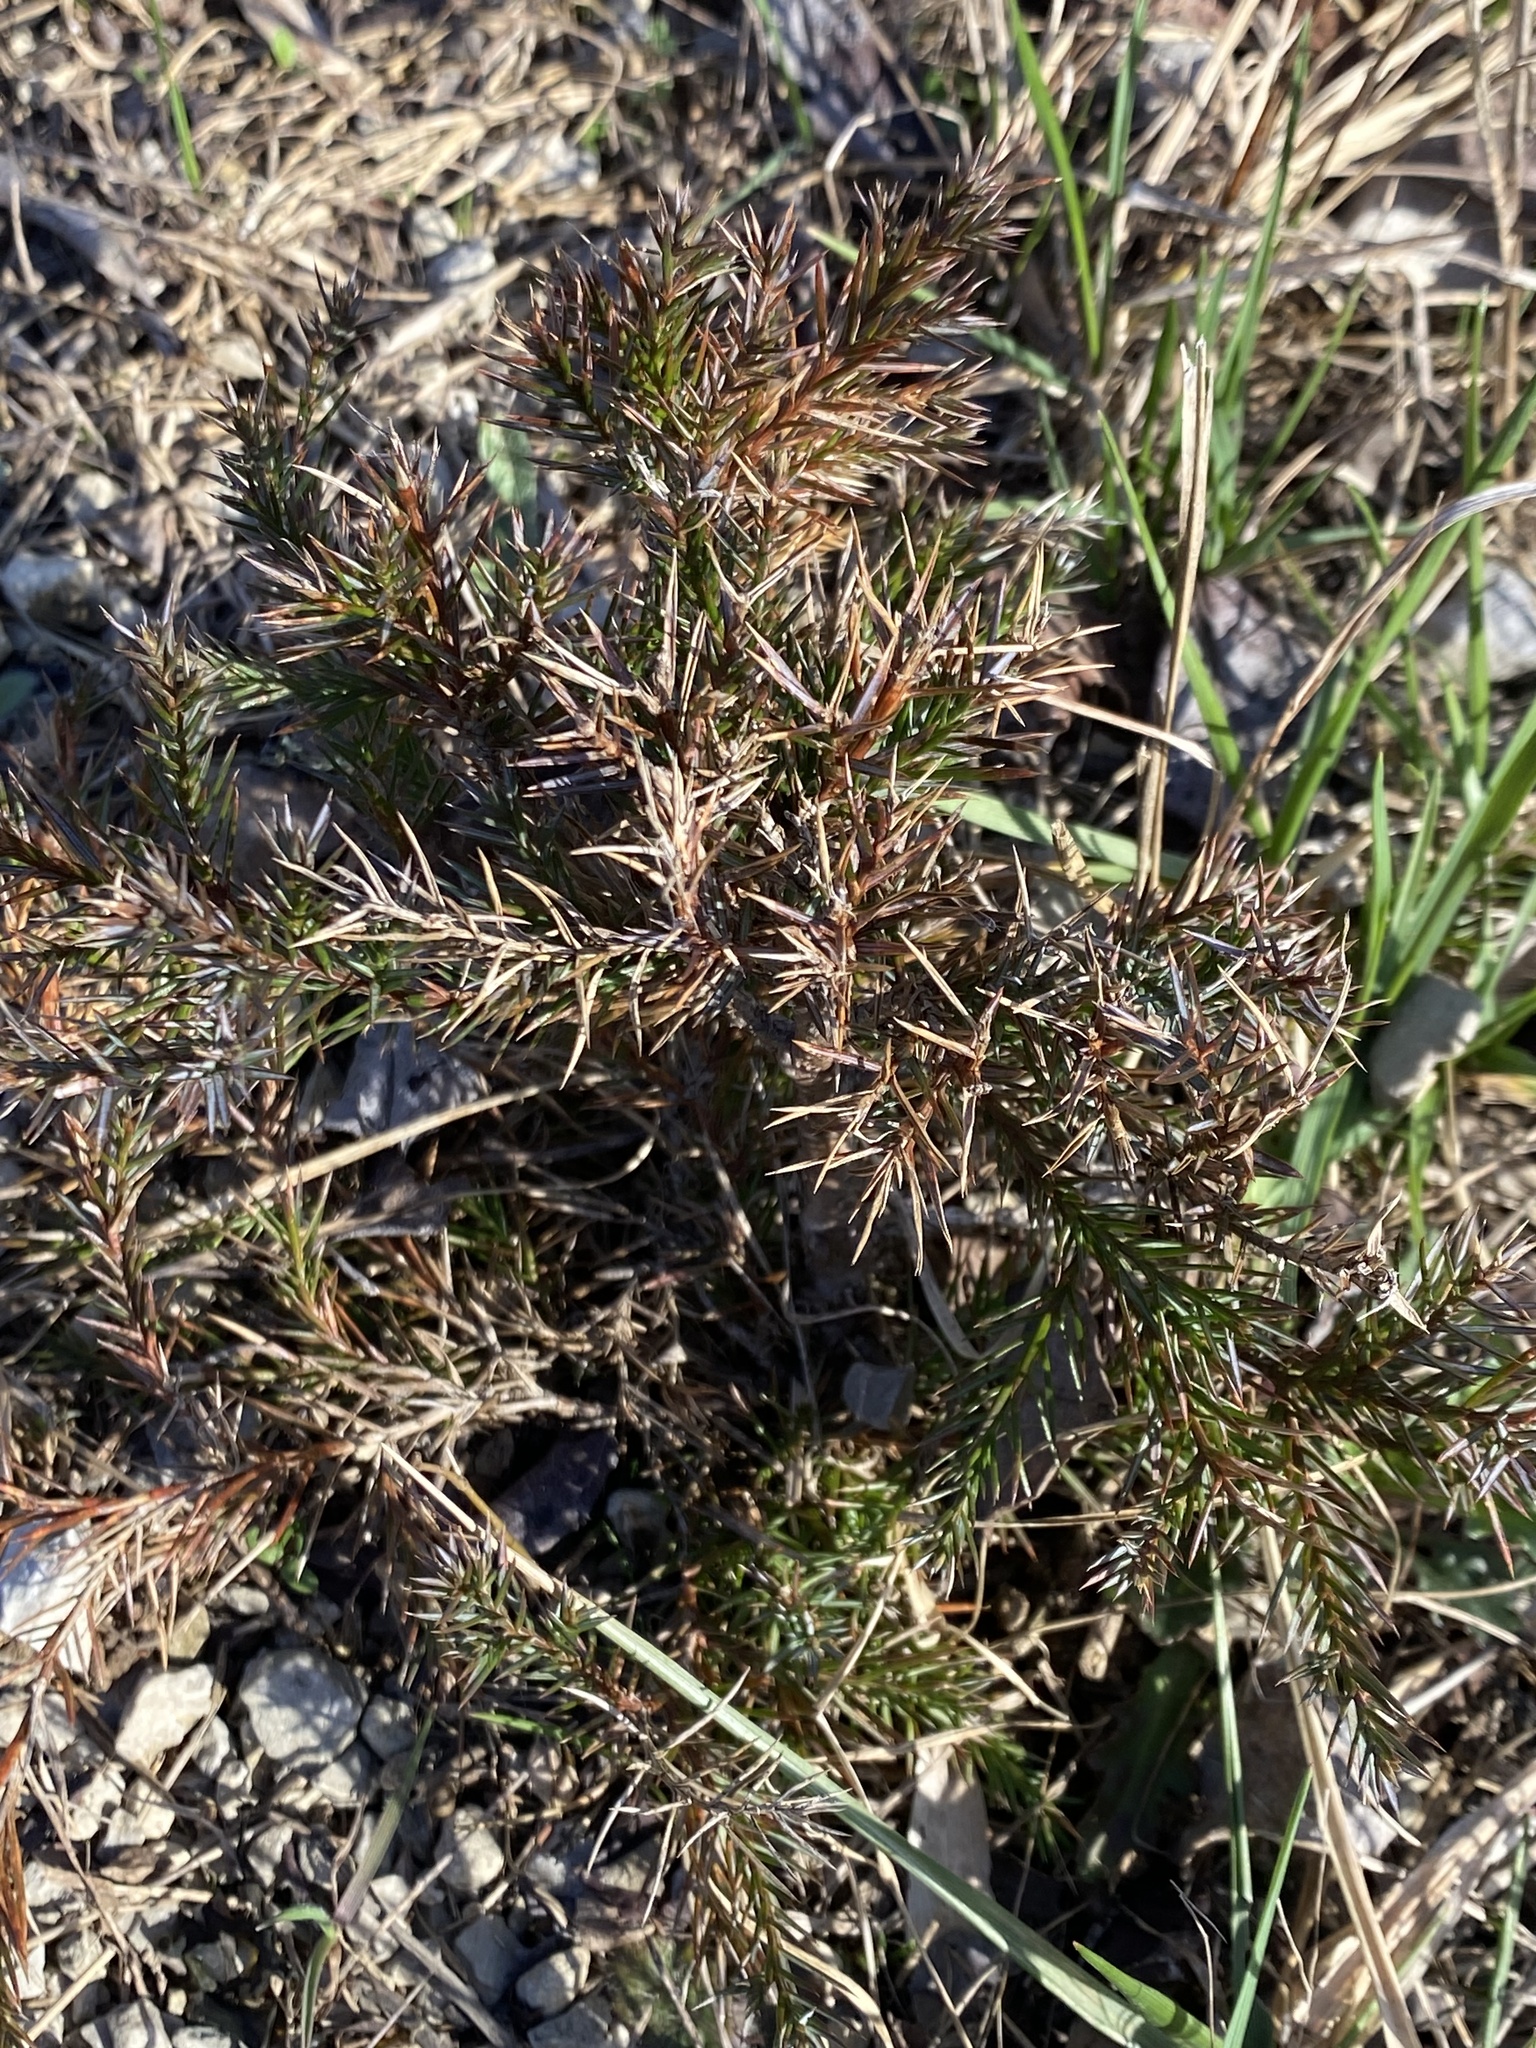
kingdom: Plantae
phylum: Tracheophyta
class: Pinopsida
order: Pinales
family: Cupressaceae
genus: Juniperus
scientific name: Juniperus virginiana
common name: Red juniper
